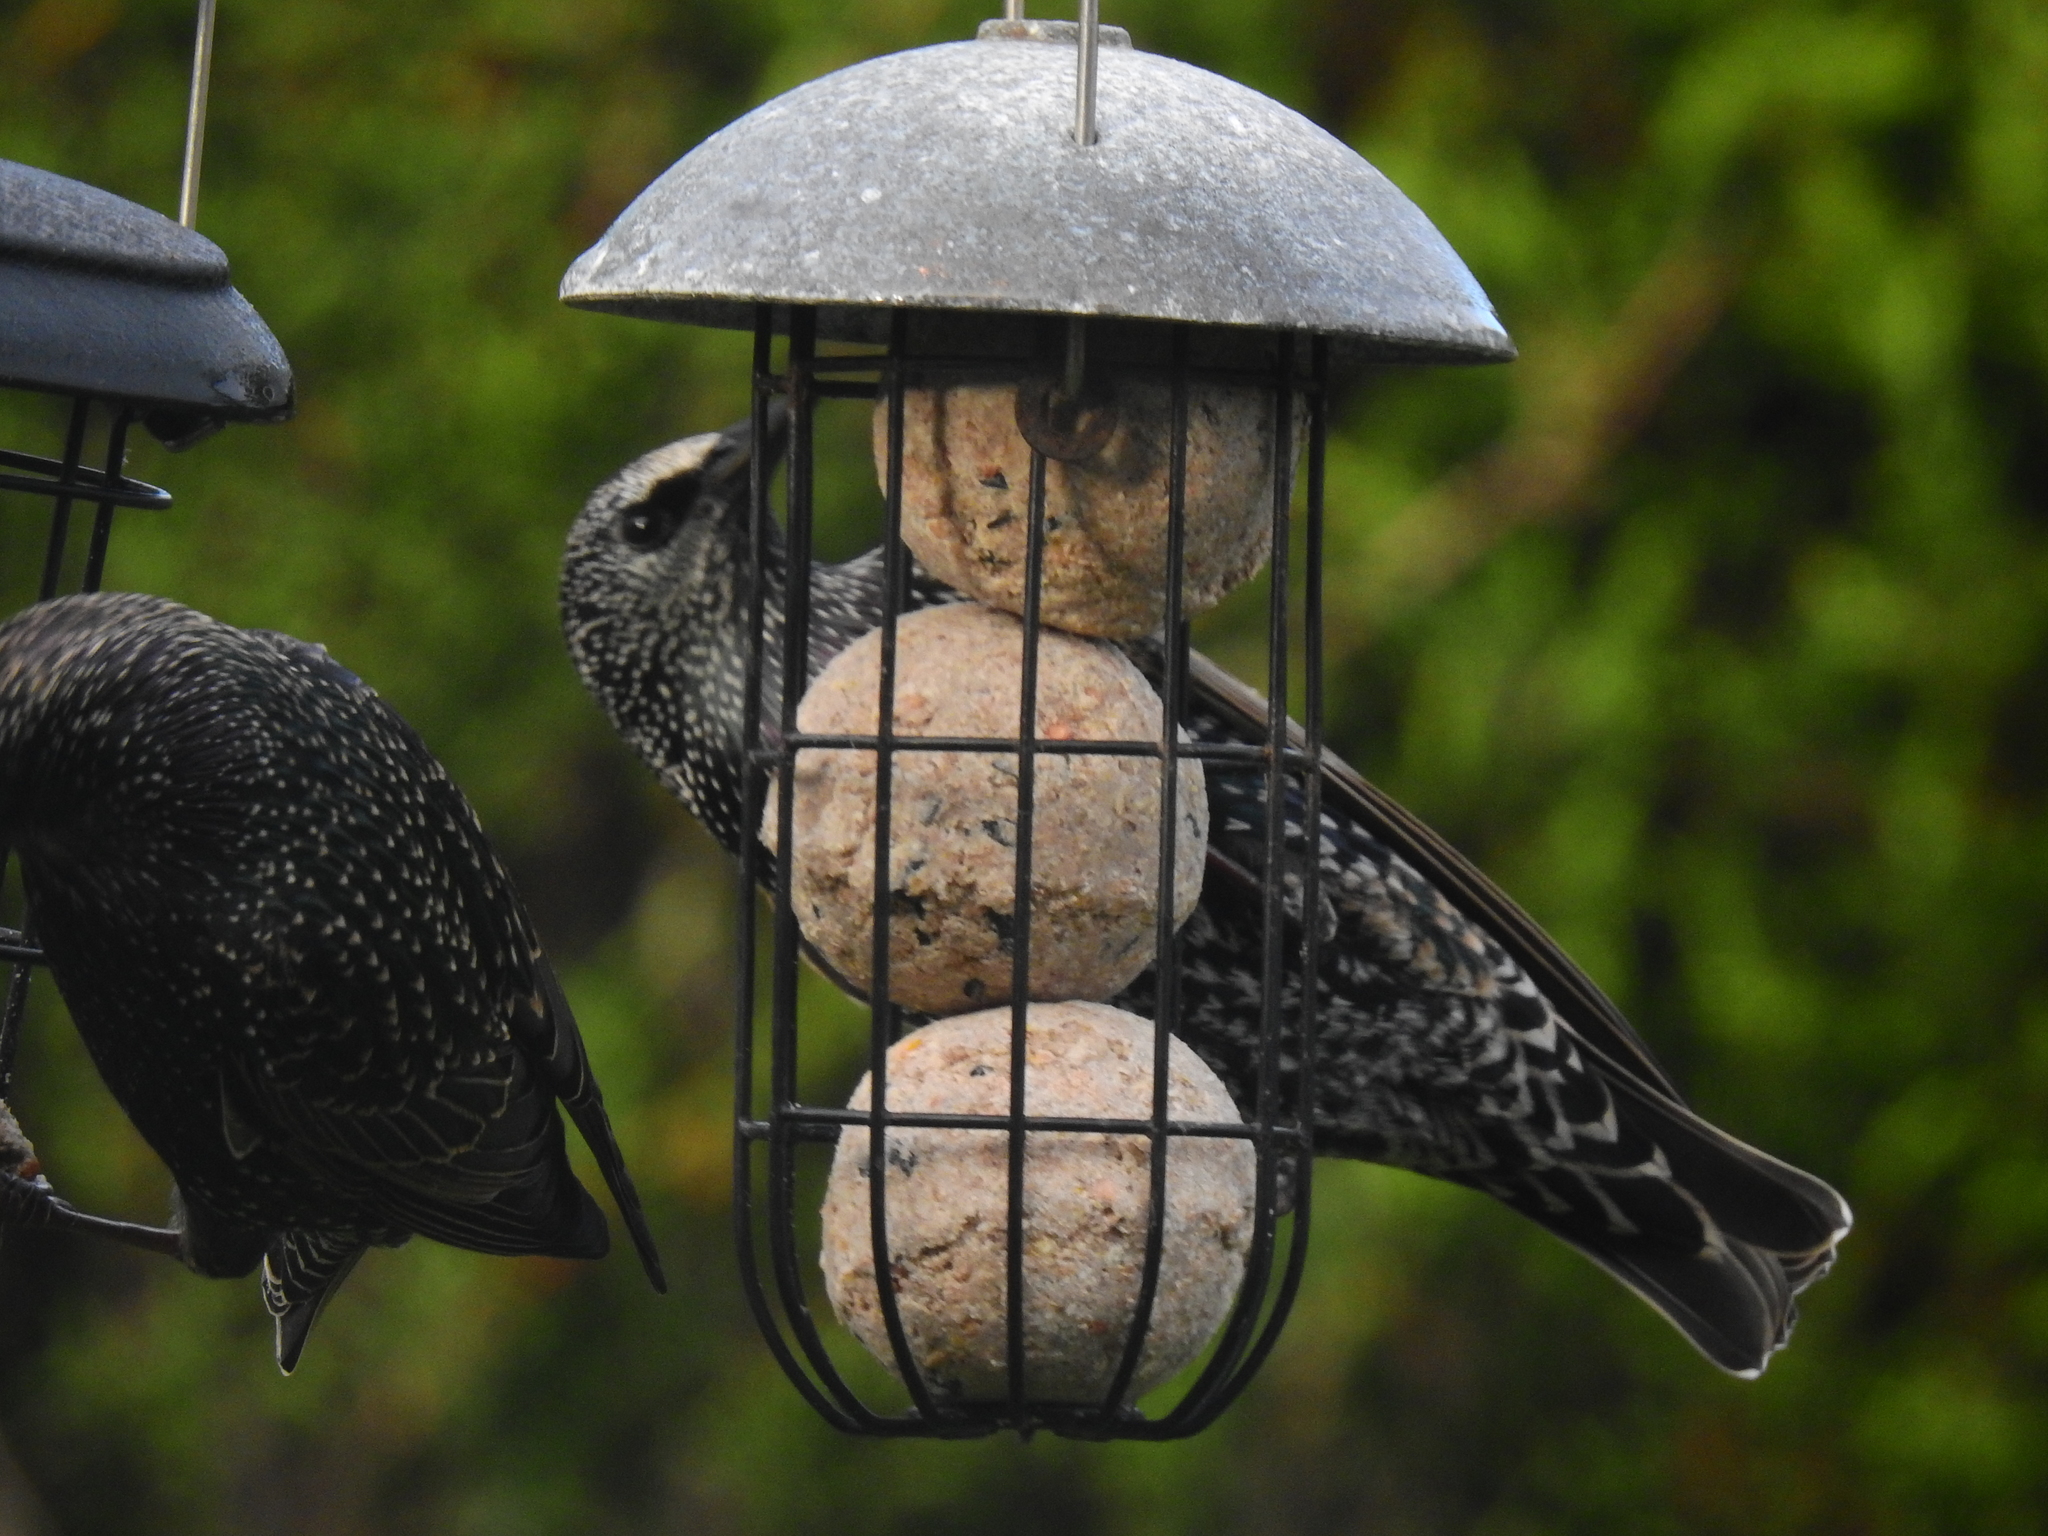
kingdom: Animalia
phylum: Chordata
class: Aves
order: Passeriformes
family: Sturnidae
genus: Sturnus
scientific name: Sturnus vulgaris
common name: Common starling
